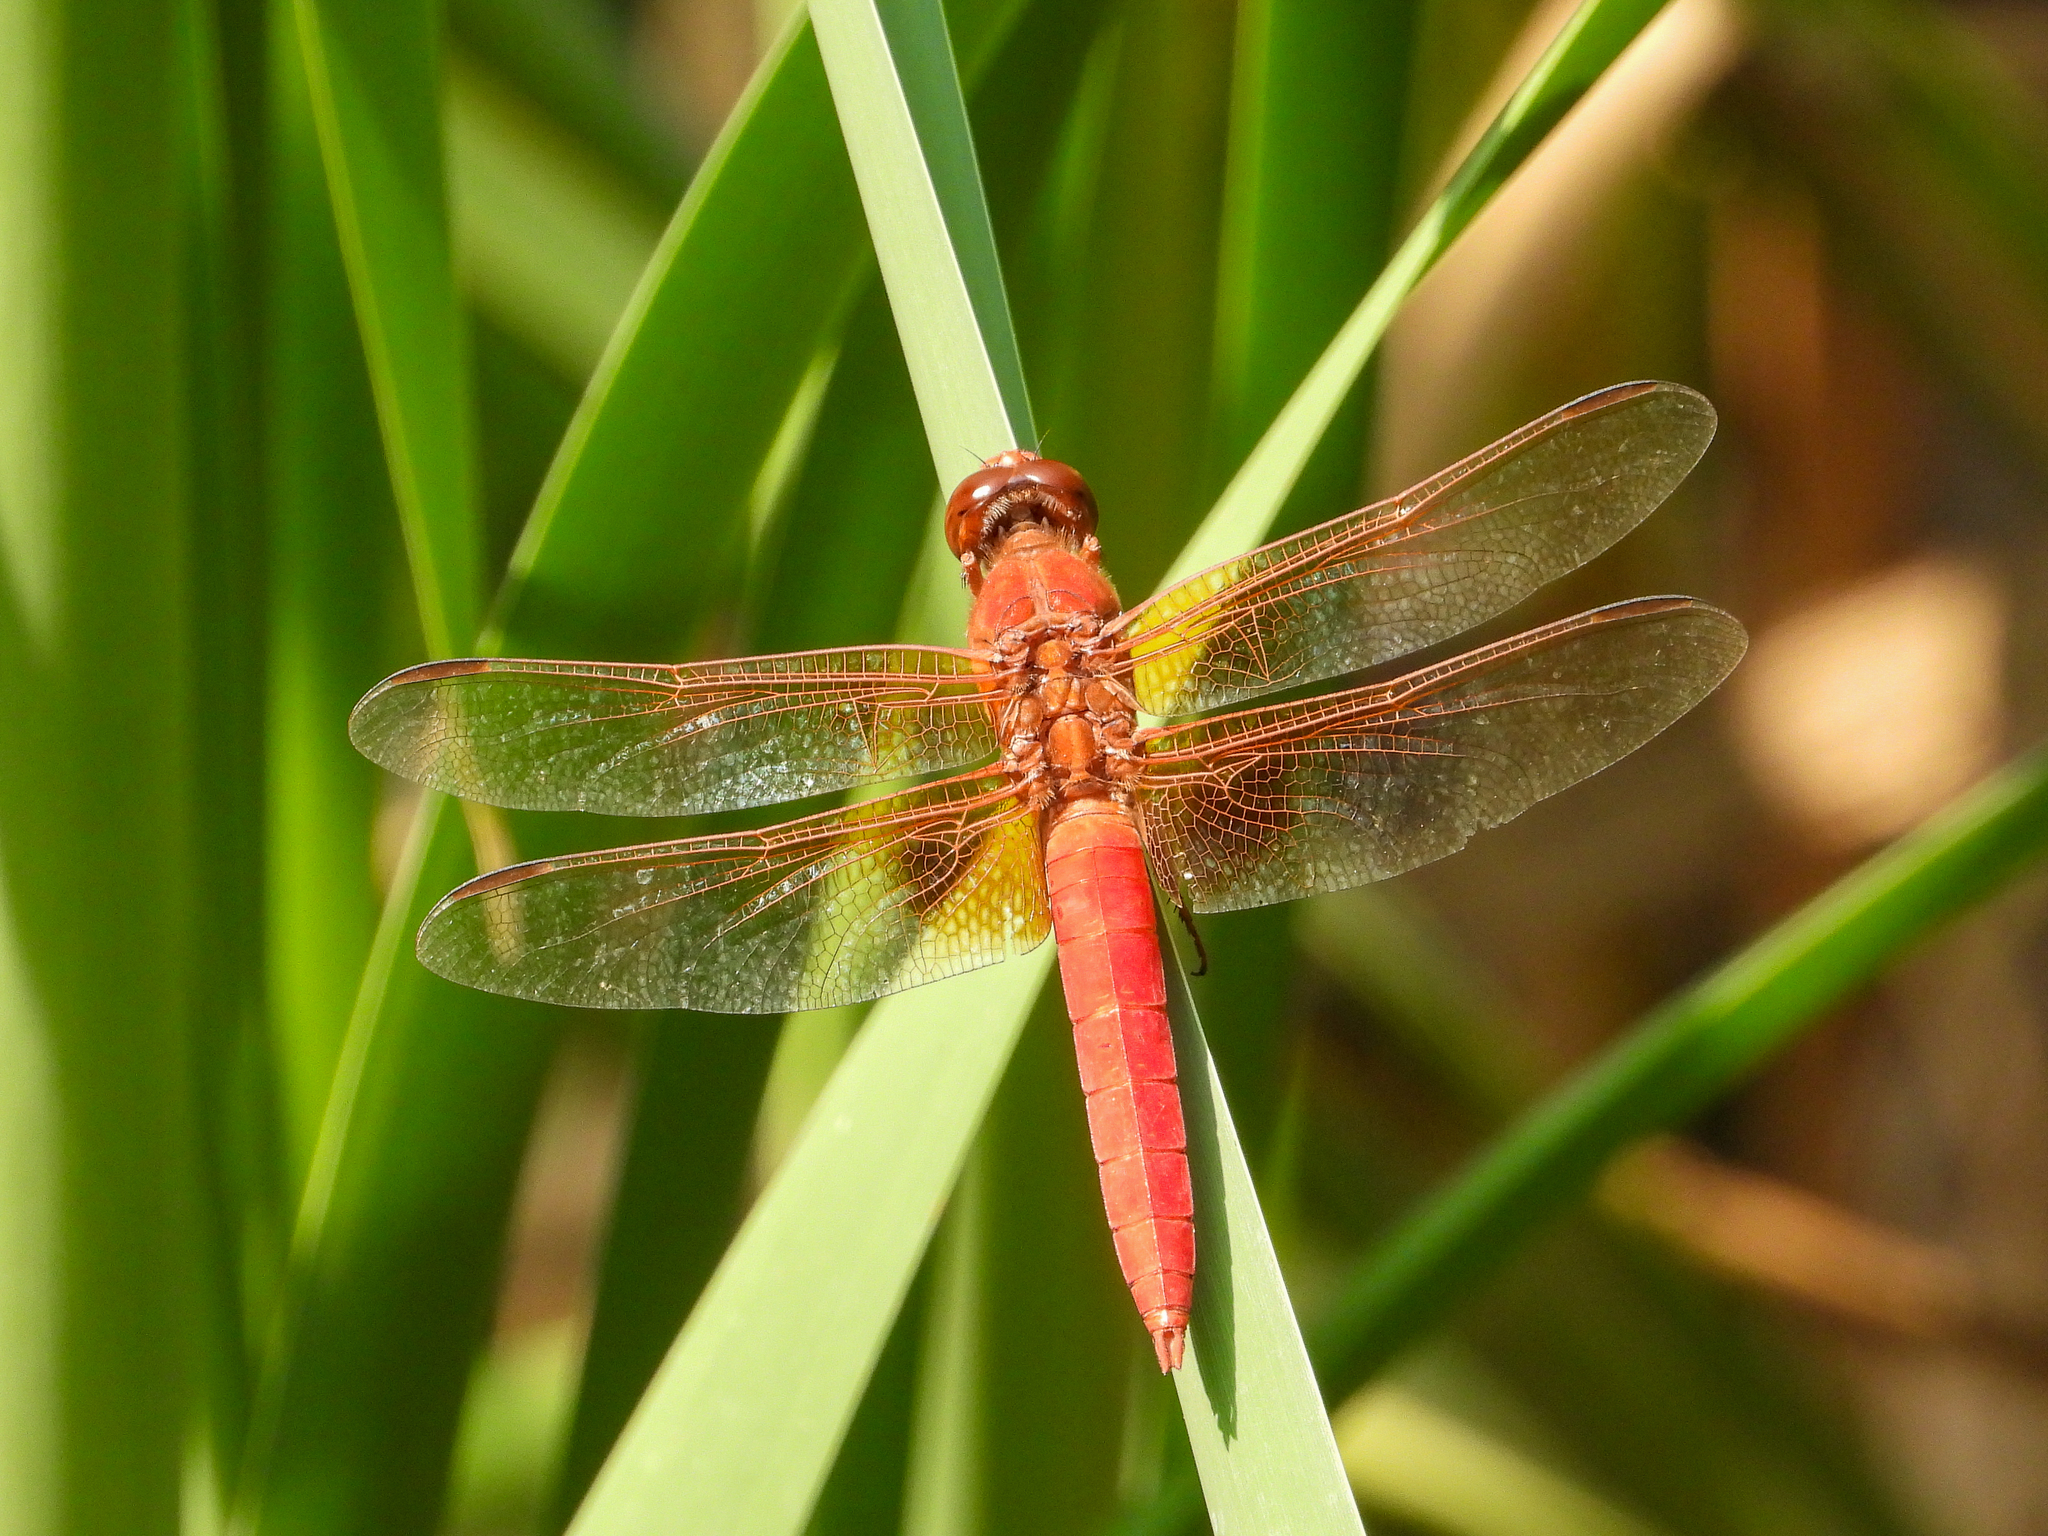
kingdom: Animalia
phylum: Arthropoda
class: Insecta
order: Odonata
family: Libellulidae
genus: Libellula
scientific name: Libellula croceipennis
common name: Neon skimmer
